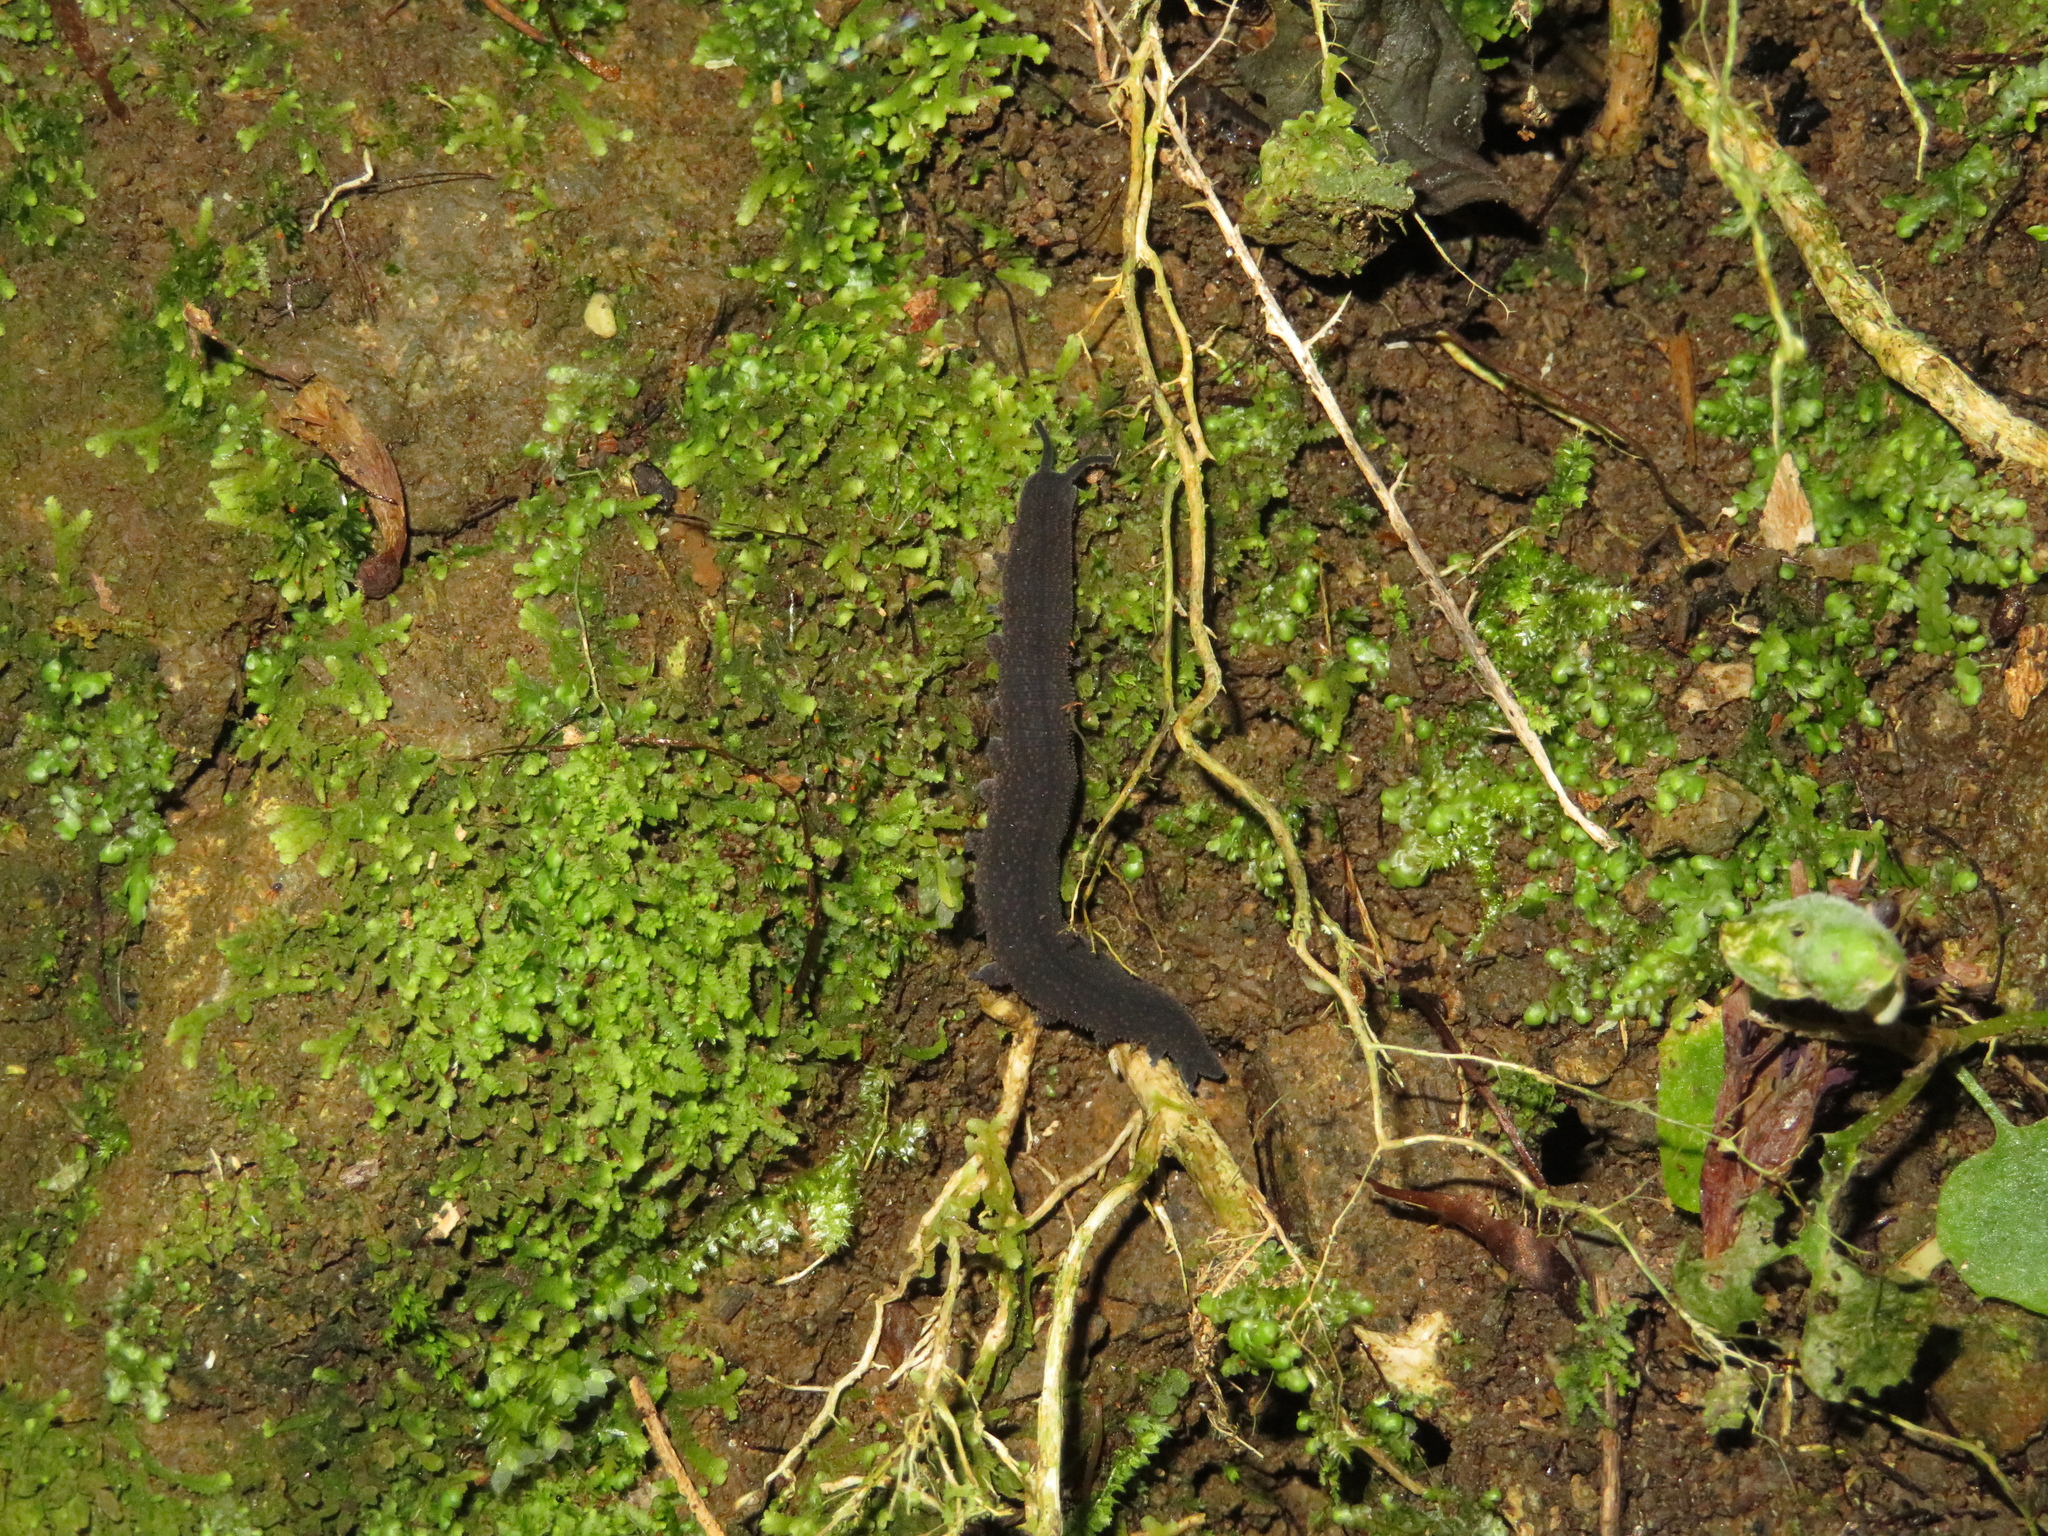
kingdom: Animalia
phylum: Onychophora
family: Peripatopsidae
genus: Peripatoides
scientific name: Peripatoides novaezealandiae
